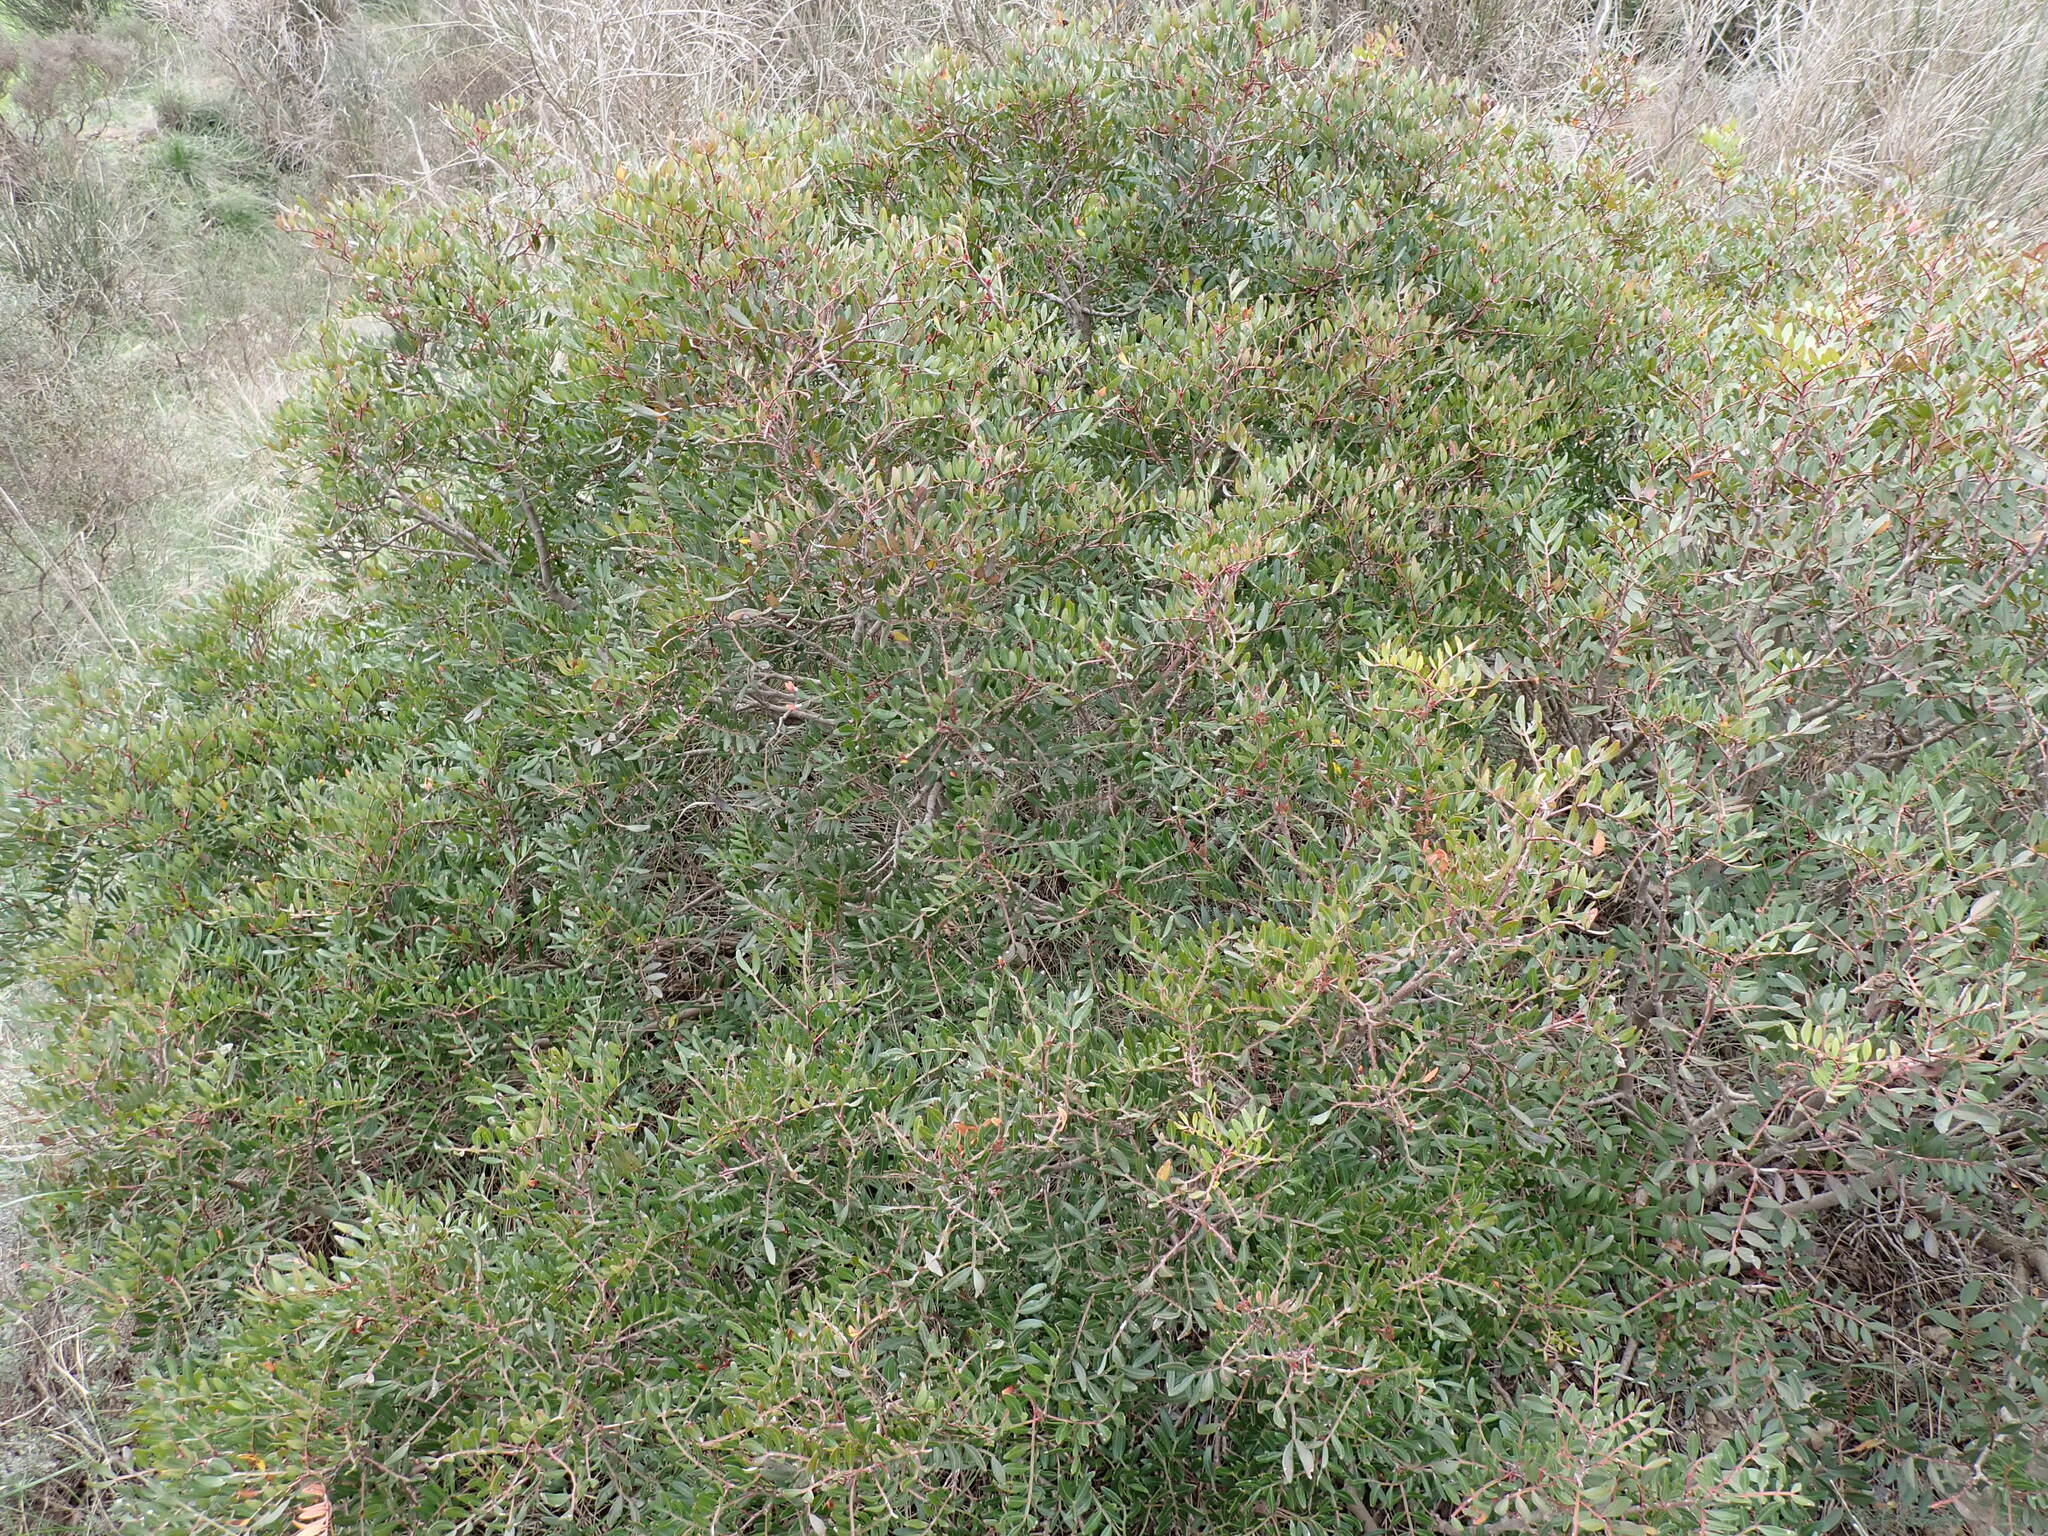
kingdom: Plantae
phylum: Tracheophyta
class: Magnoliopsida
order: Sapindales
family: Anacardiaceae
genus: Pistacia
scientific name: Pistacia lentiscus
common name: Lentisk
